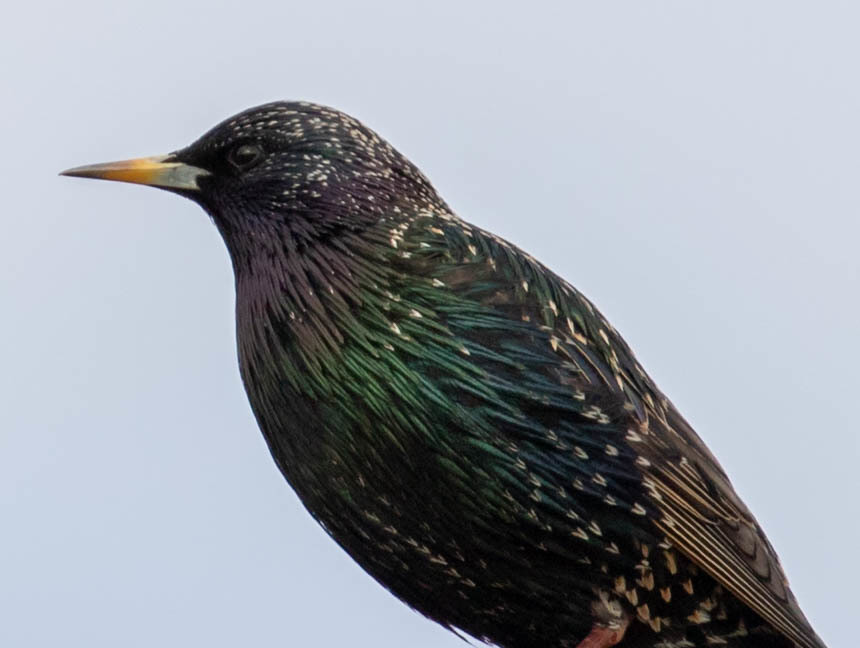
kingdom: Animalia
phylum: Chordata
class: Aves
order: Passeriformes
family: Sturnidae
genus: Sturnus
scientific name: Sturnus vulgaris
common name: Common starling
